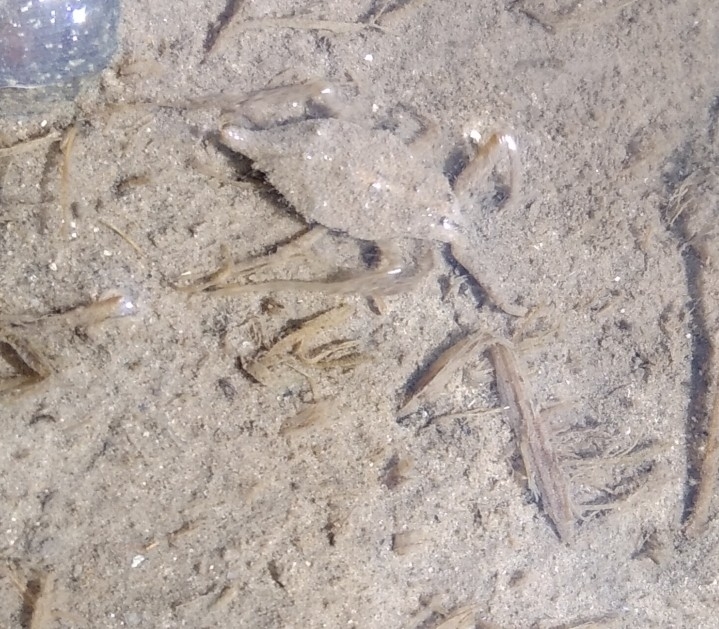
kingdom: Animalia
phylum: Arthropoda
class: Insecta
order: Hemiptera
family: Nepidae
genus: Nepa
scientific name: Nepa cinerea
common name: Water scorpion
